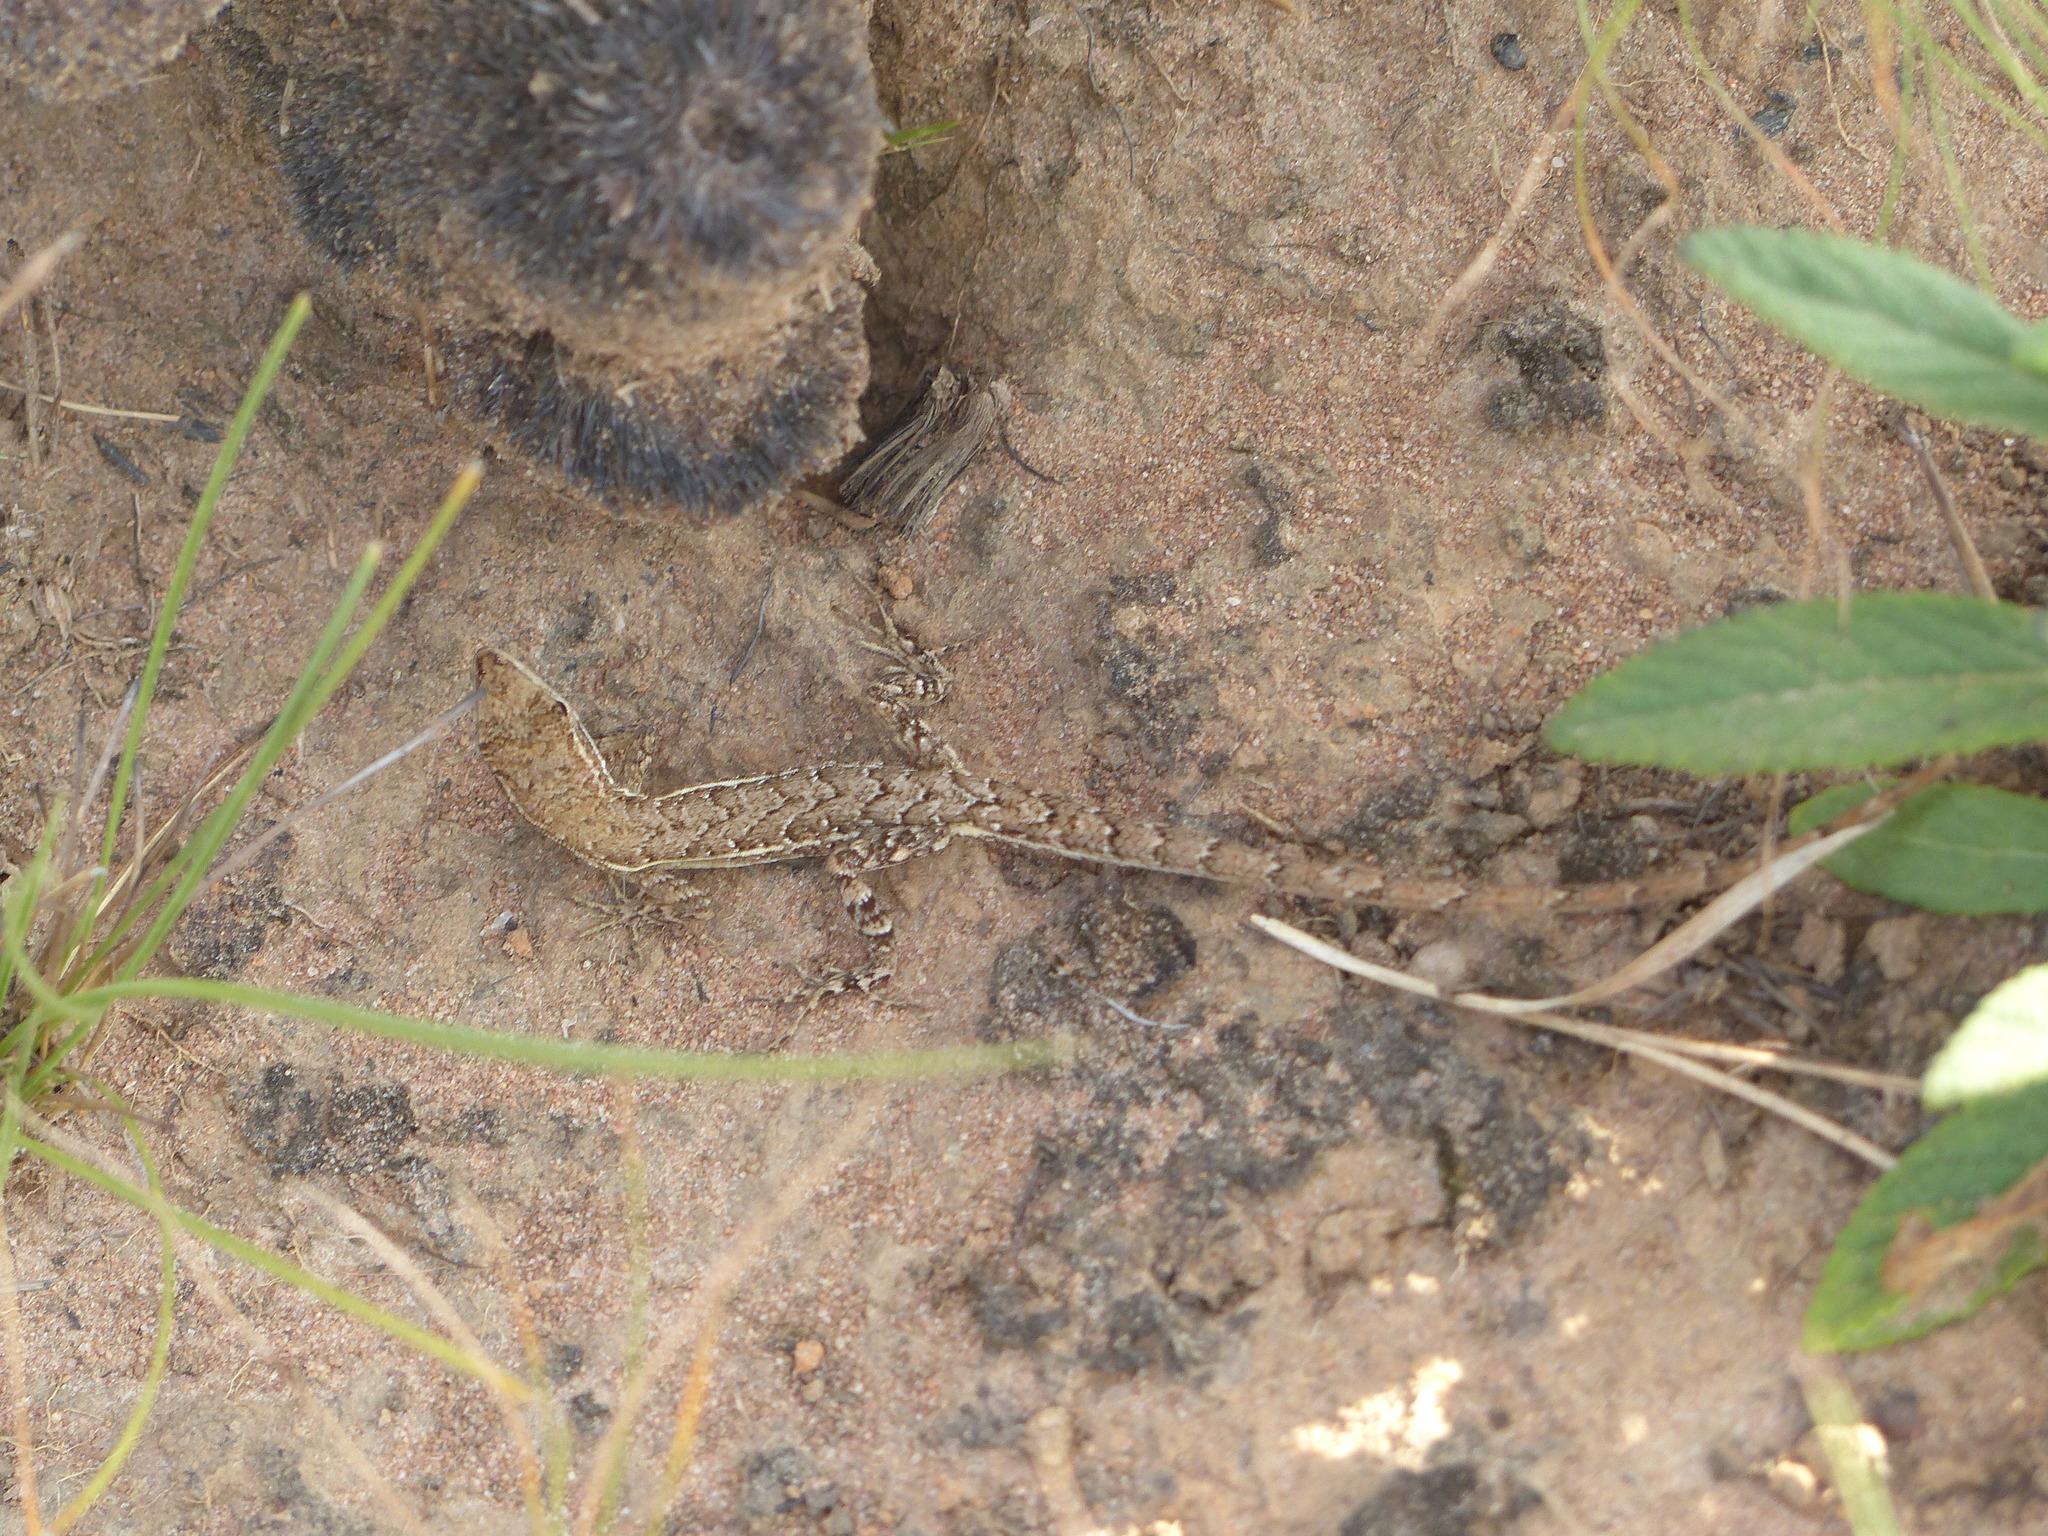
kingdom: Animalia
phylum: Chordata
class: Squamata
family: Dactyloidae
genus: Anolis
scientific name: Anolis auratus
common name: Grass anole
